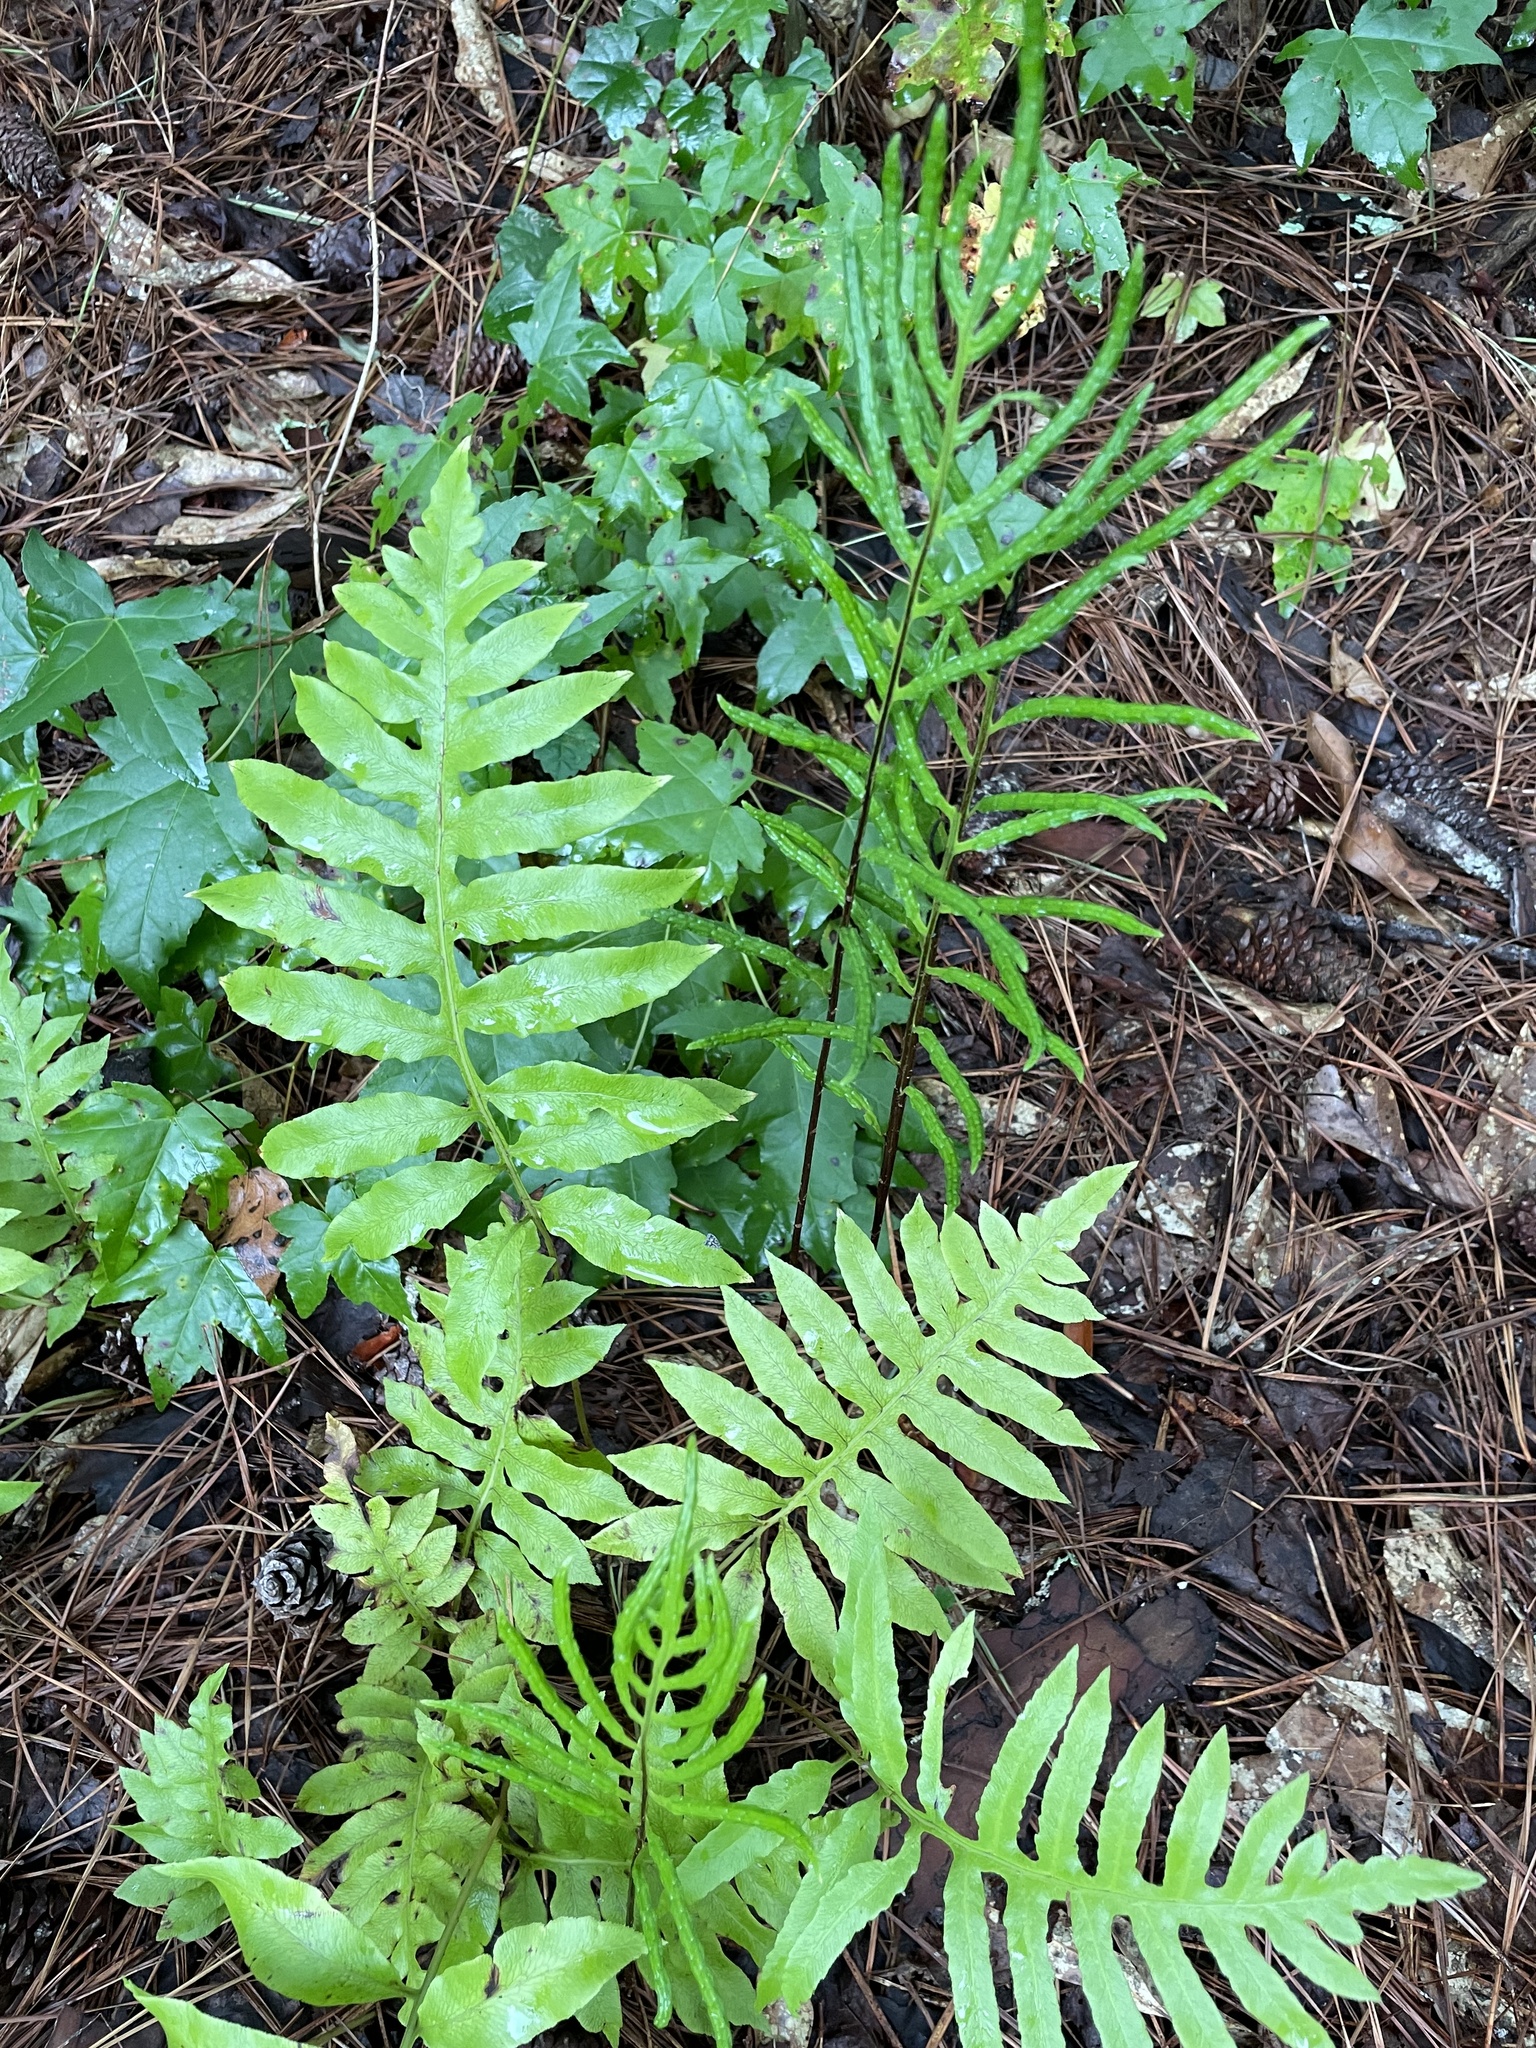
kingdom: Plantae
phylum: Tracheophyta
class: Polypodiopsida
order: Polypodiales
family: Blechnaceae
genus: Lorinseria
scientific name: Lorinseria areolata
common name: Dwarf chain fern
